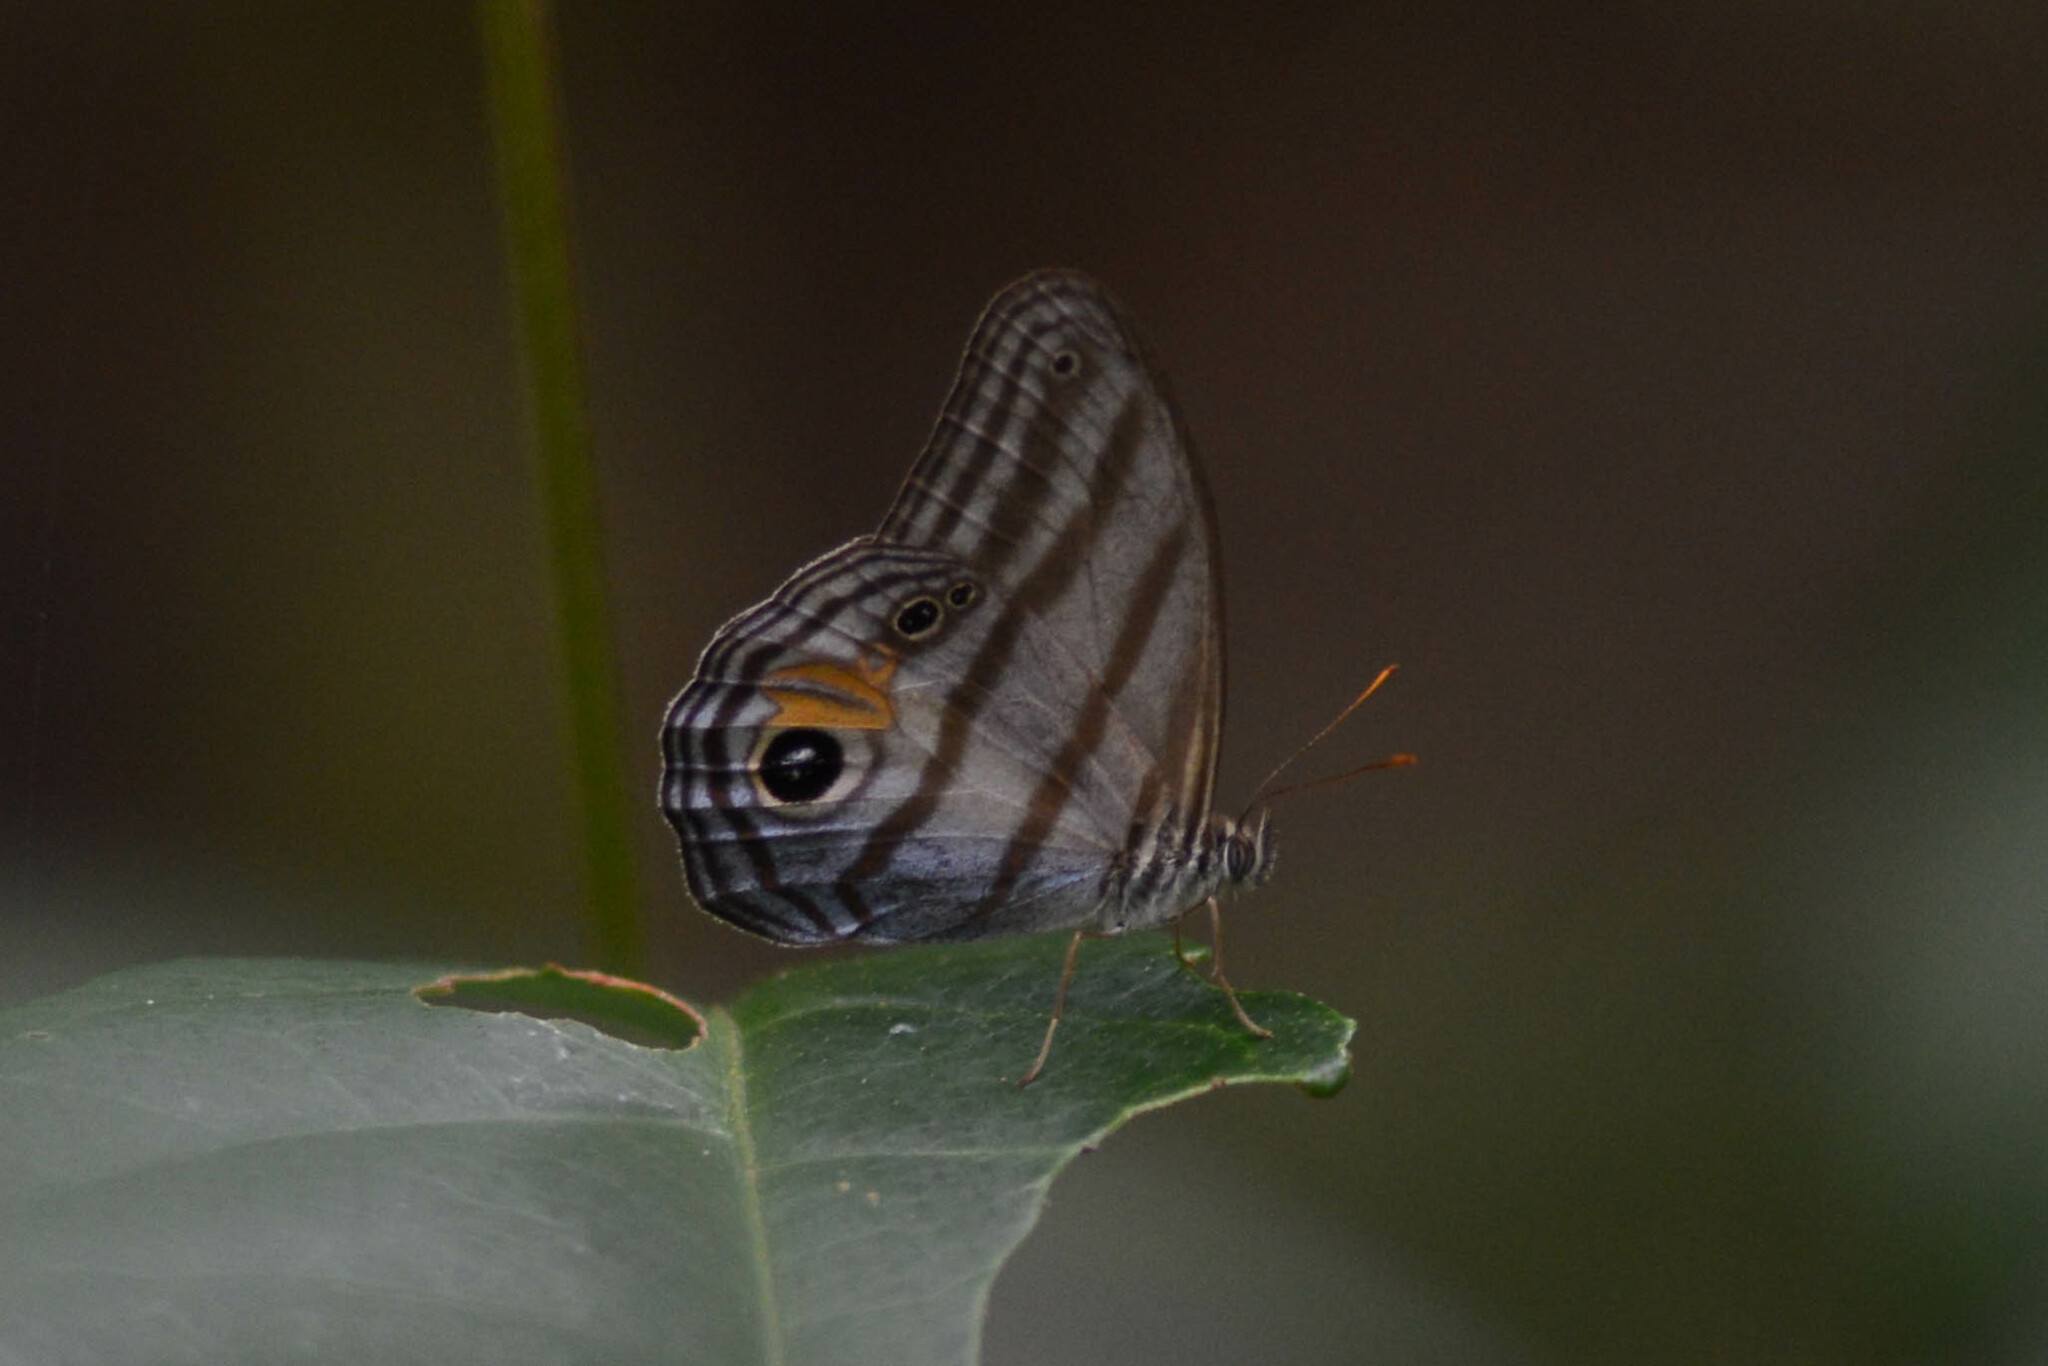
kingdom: Animalia
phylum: Arthropoda
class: Insecta
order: Lepidoptera
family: Nymphalidae
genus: Chloreuptychia
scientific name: Chloreuptychia chloris
